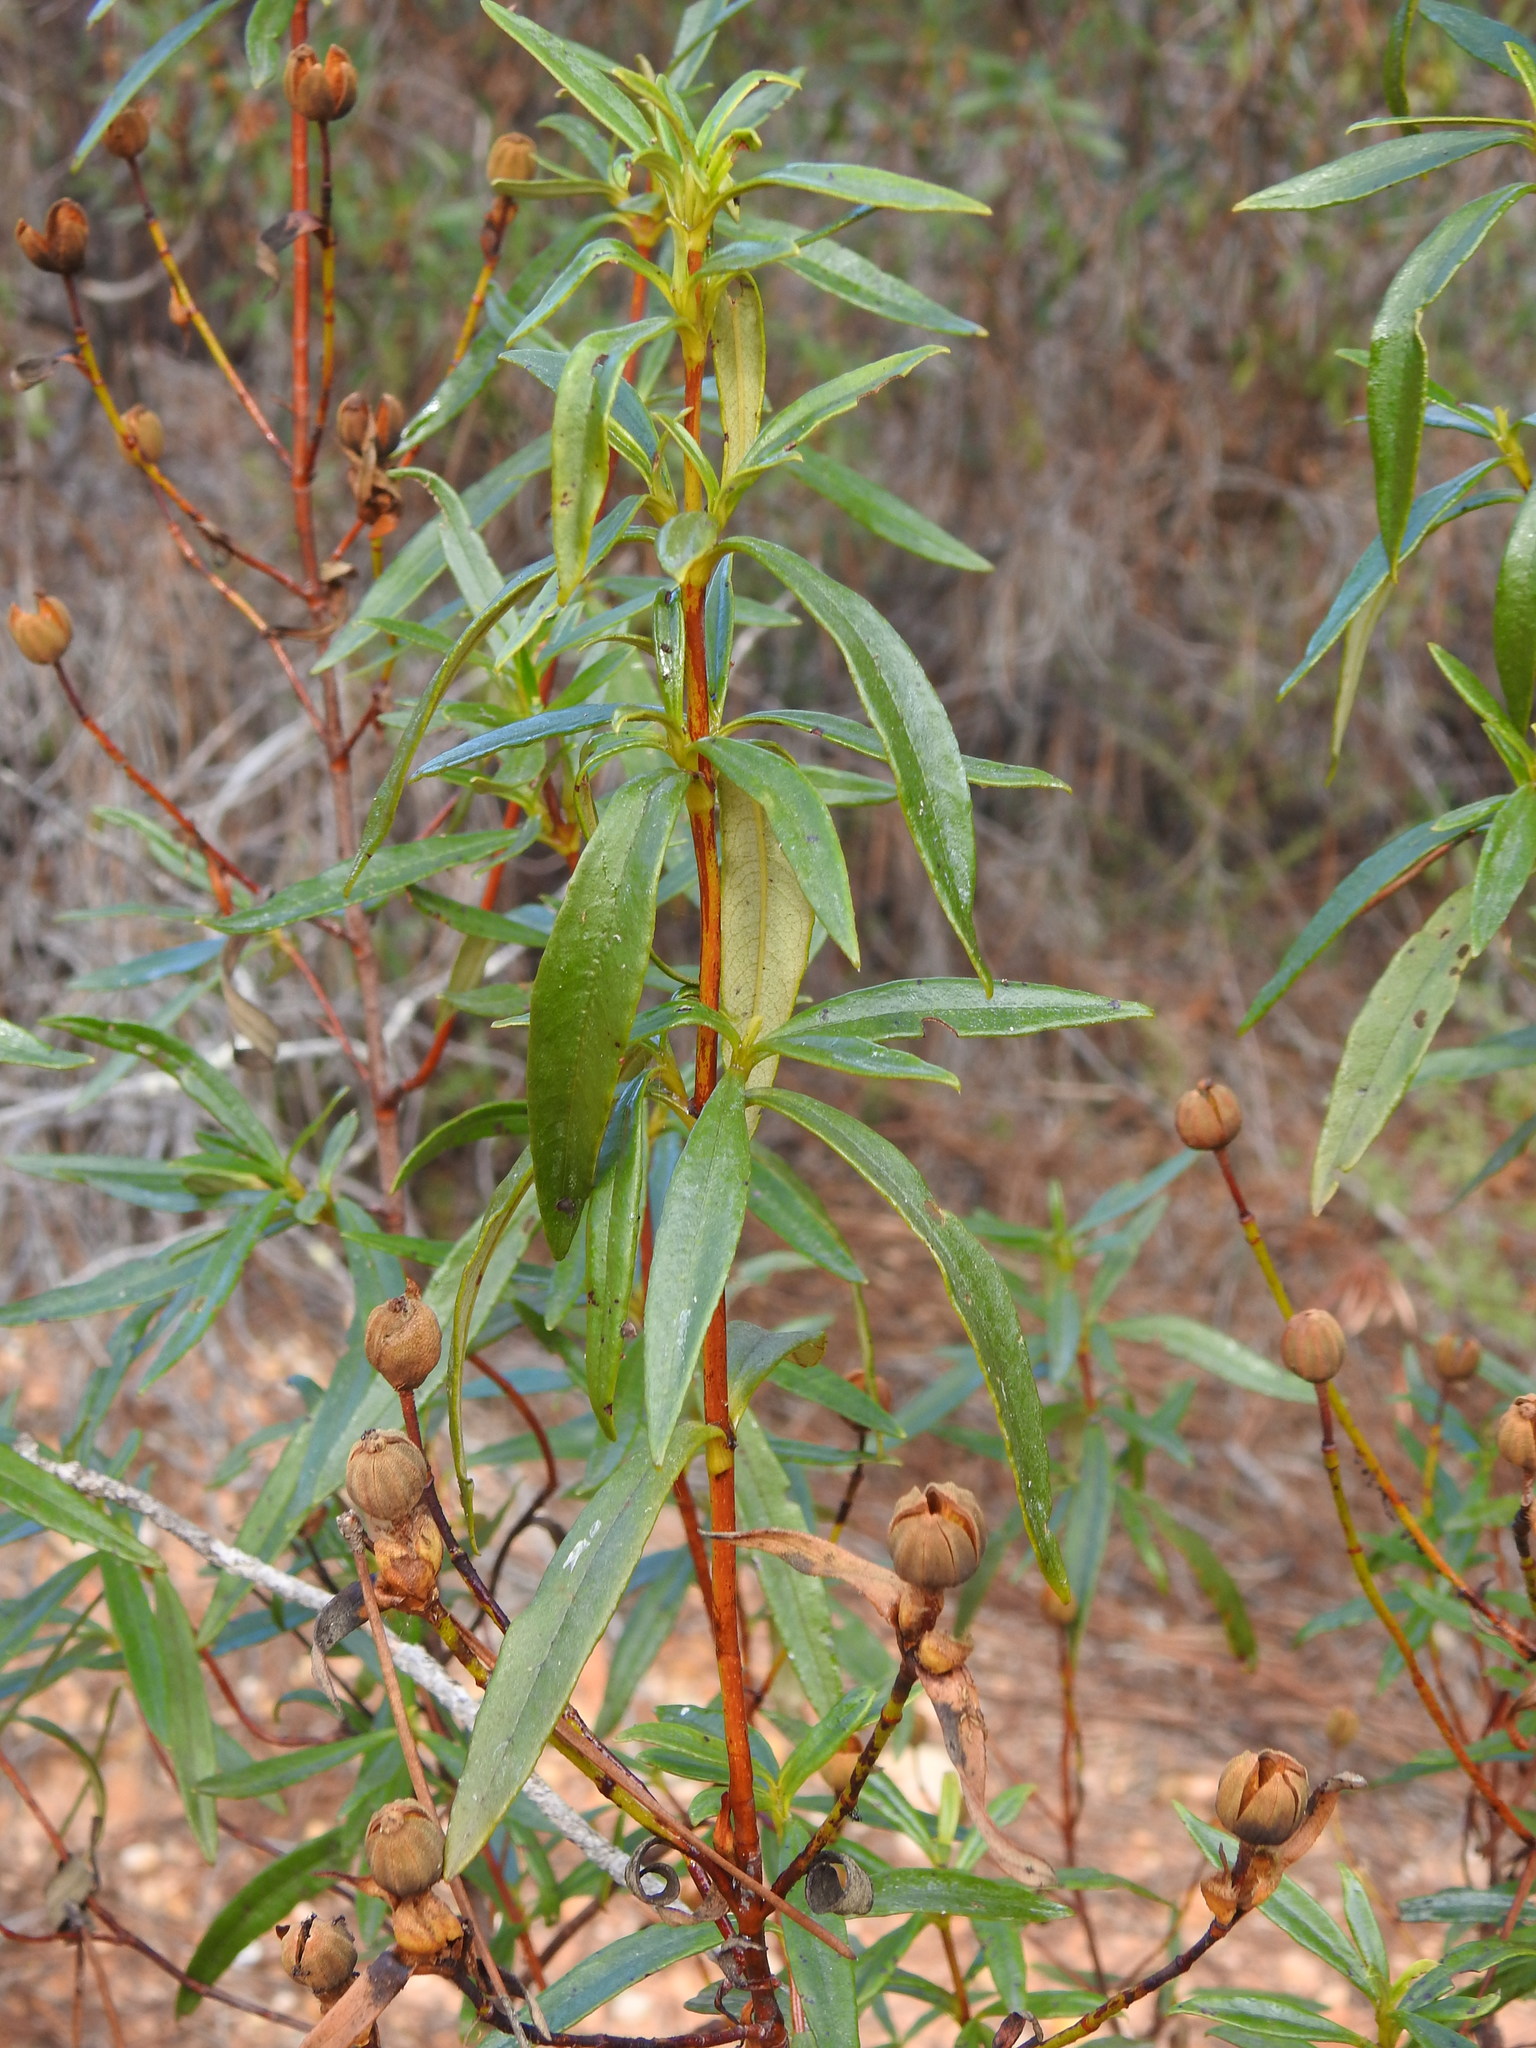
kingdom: Plantae
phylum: Tracheophyta
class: Magnoliopsida
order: Malvales
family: Cistaceae
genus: Cistus
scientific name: Cistus ladanifer
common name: Common gum cistus
